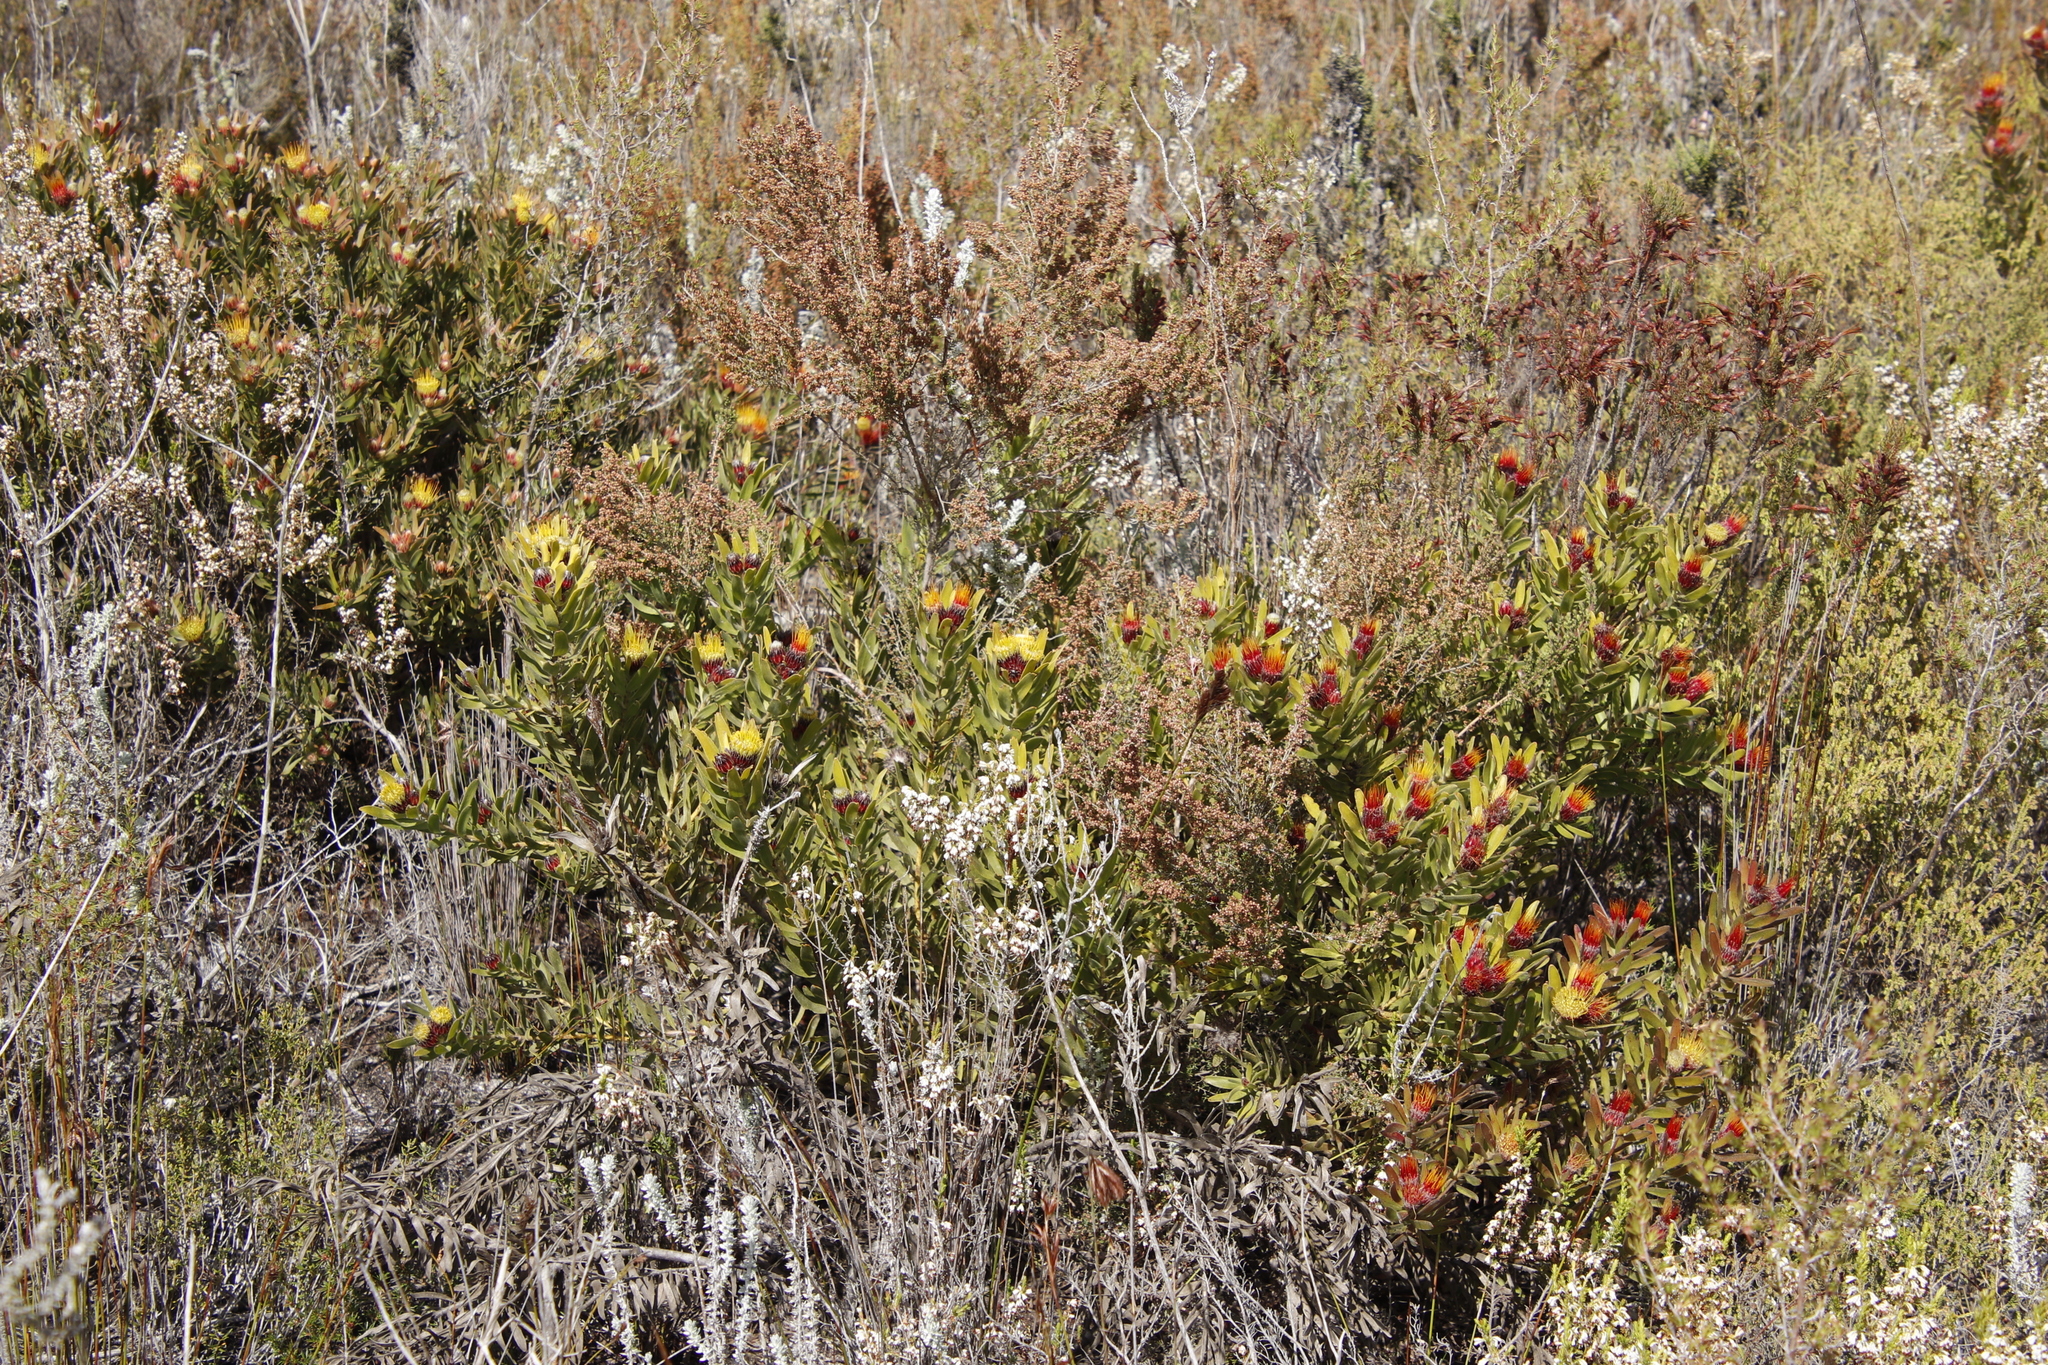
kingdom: Plantae
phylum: Tracheophyta
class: Magnoliopsida
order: Proteales
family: Proteaceae
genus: Leucospermum
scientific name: Leucospermum oleifolium
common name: Matches
